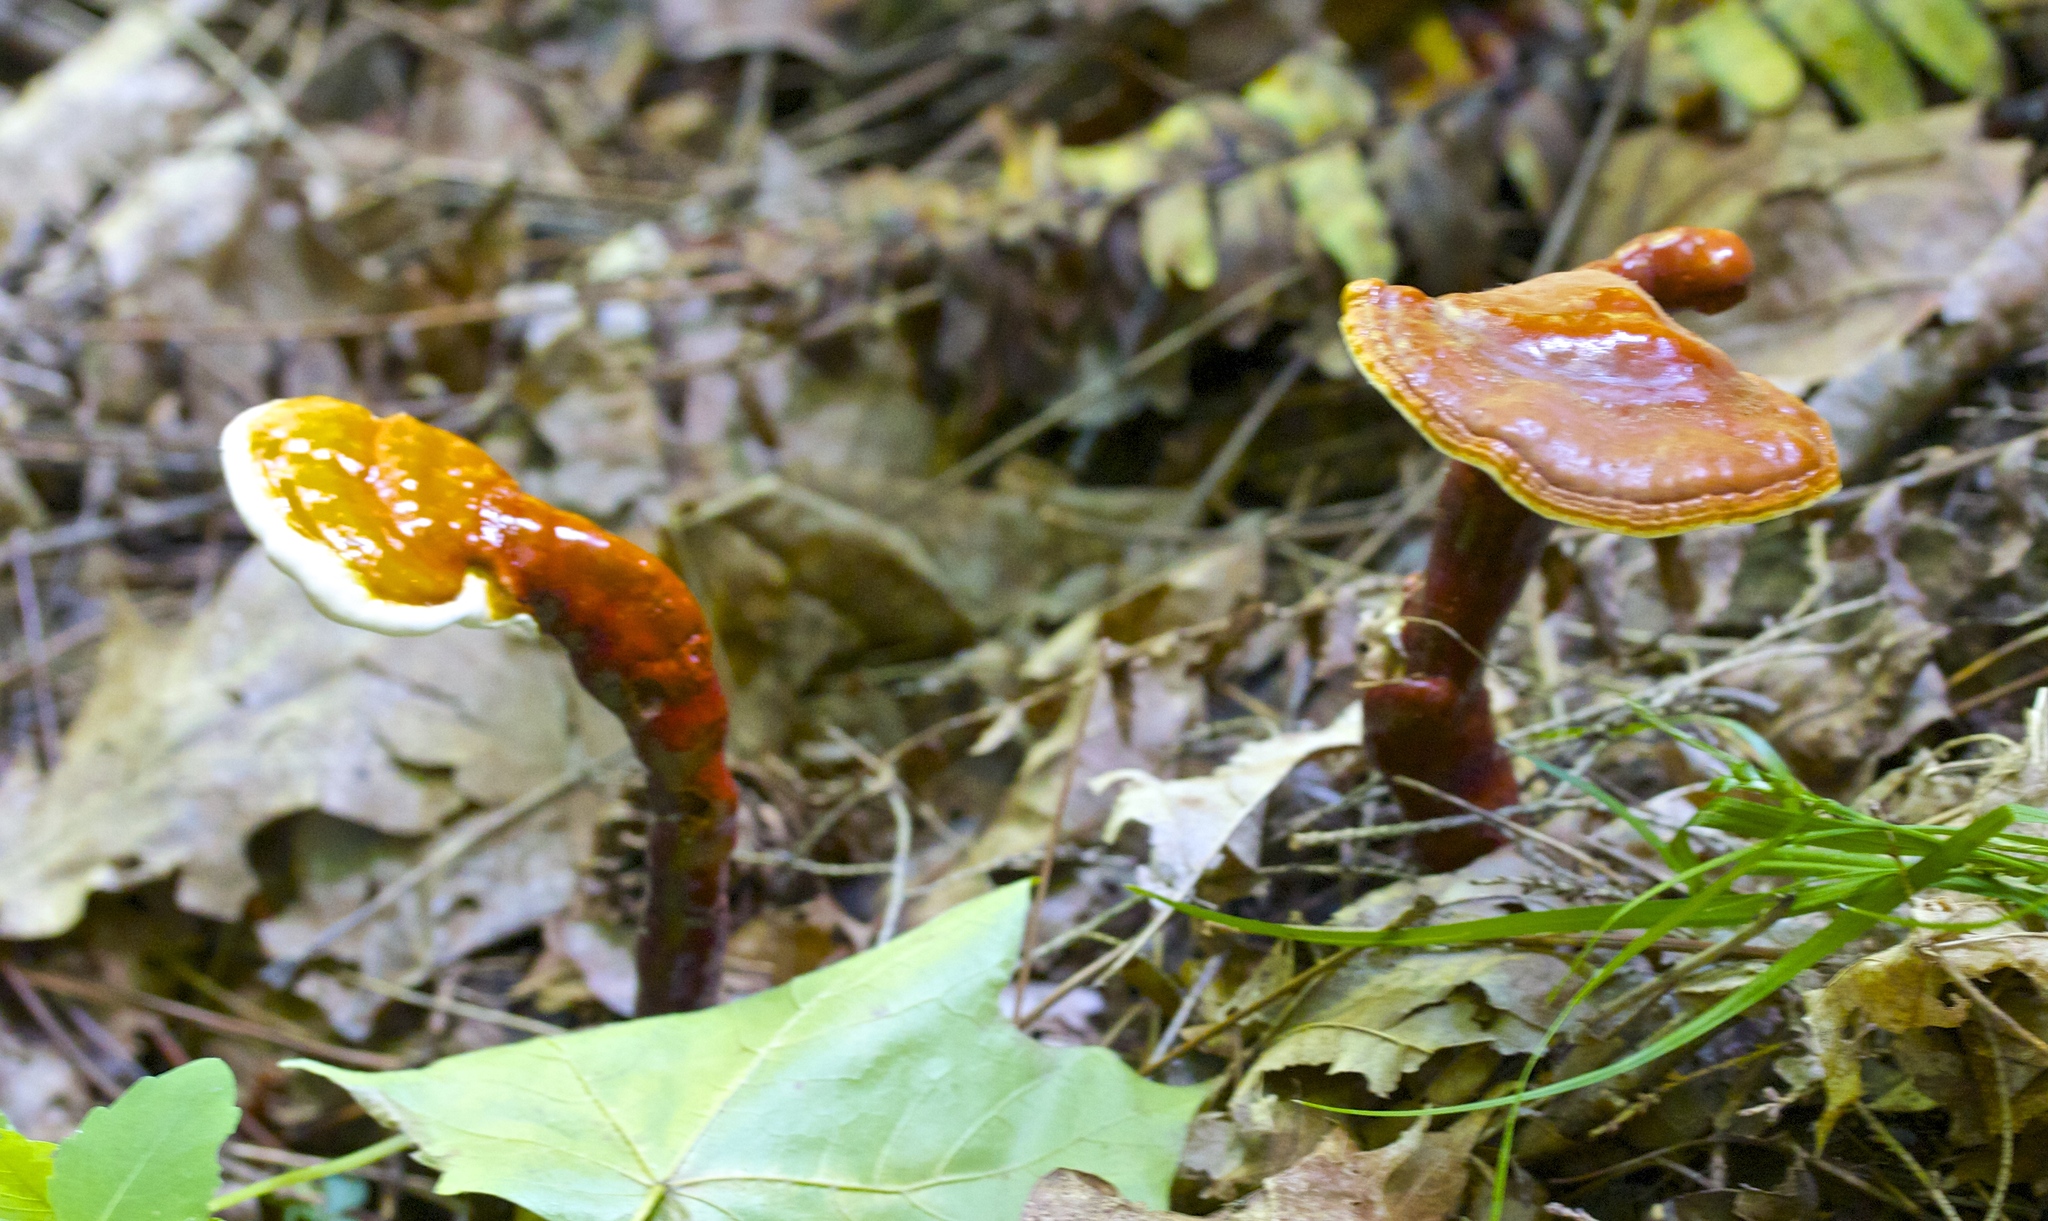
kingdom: Fungi
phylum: Basidiomycota
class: Agaricomycetes
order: Polyporales
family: Polyporaceae
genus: Ganoderma
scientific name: Ganoderma tsugae
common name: Hemlock varnish shelf
